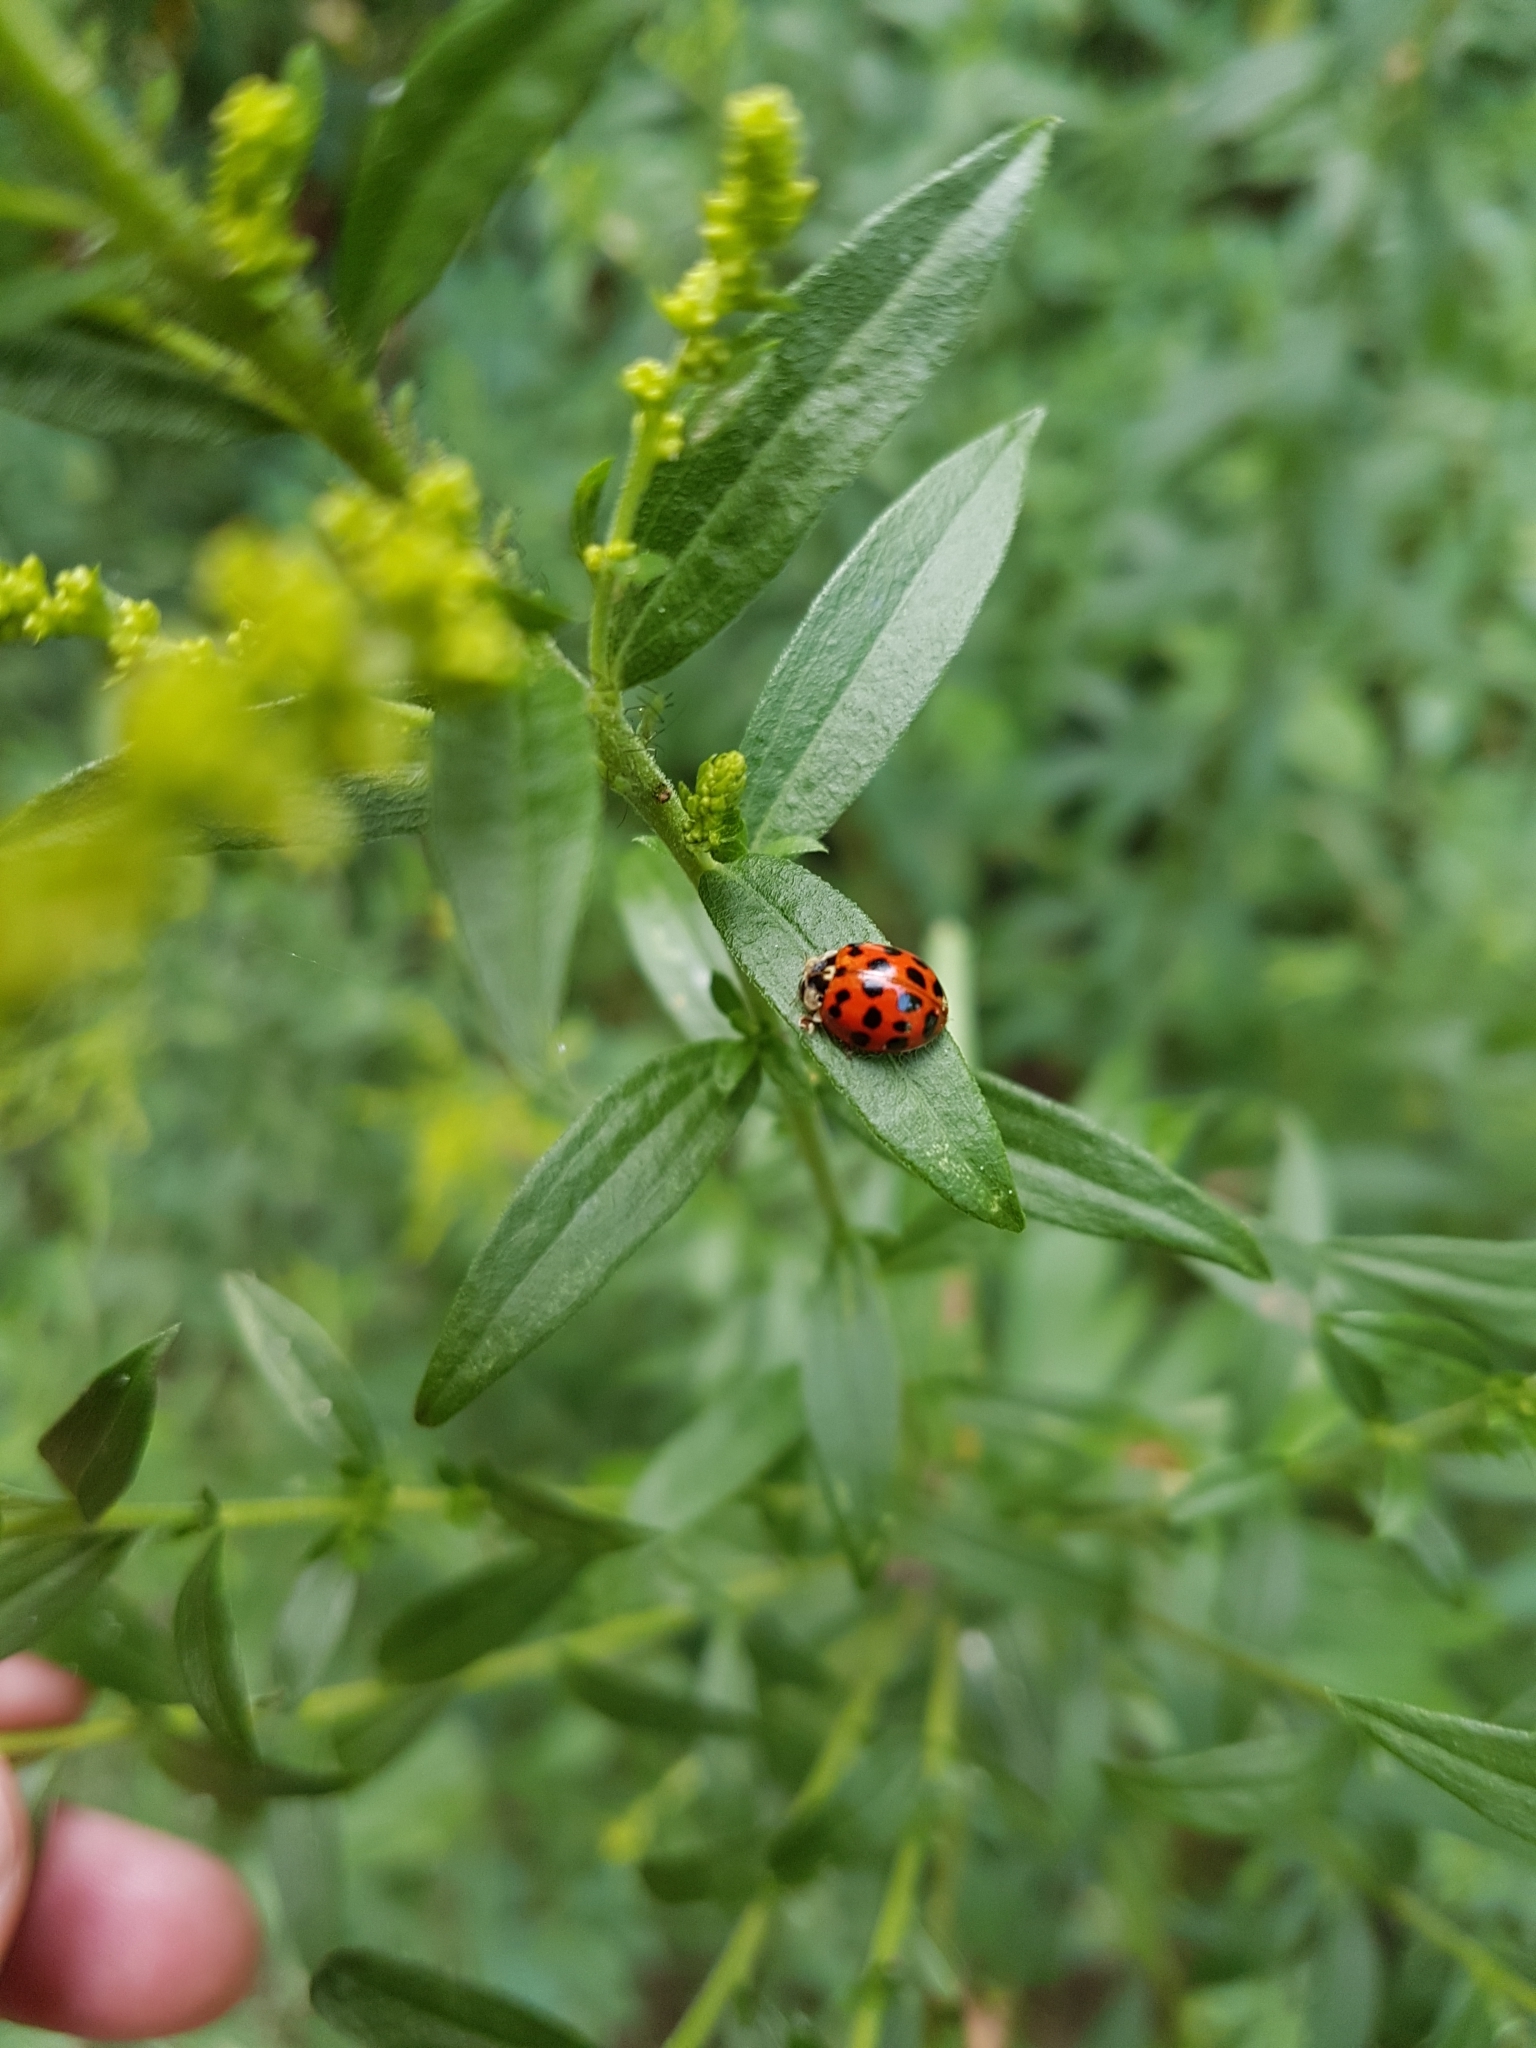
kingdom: Animalia
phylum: Arthropoda
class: Insecta
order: Coleoptera
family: Coccinellidae
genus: Harmonia
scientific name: Harmonia axyridis
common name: Harlequin ladybird
